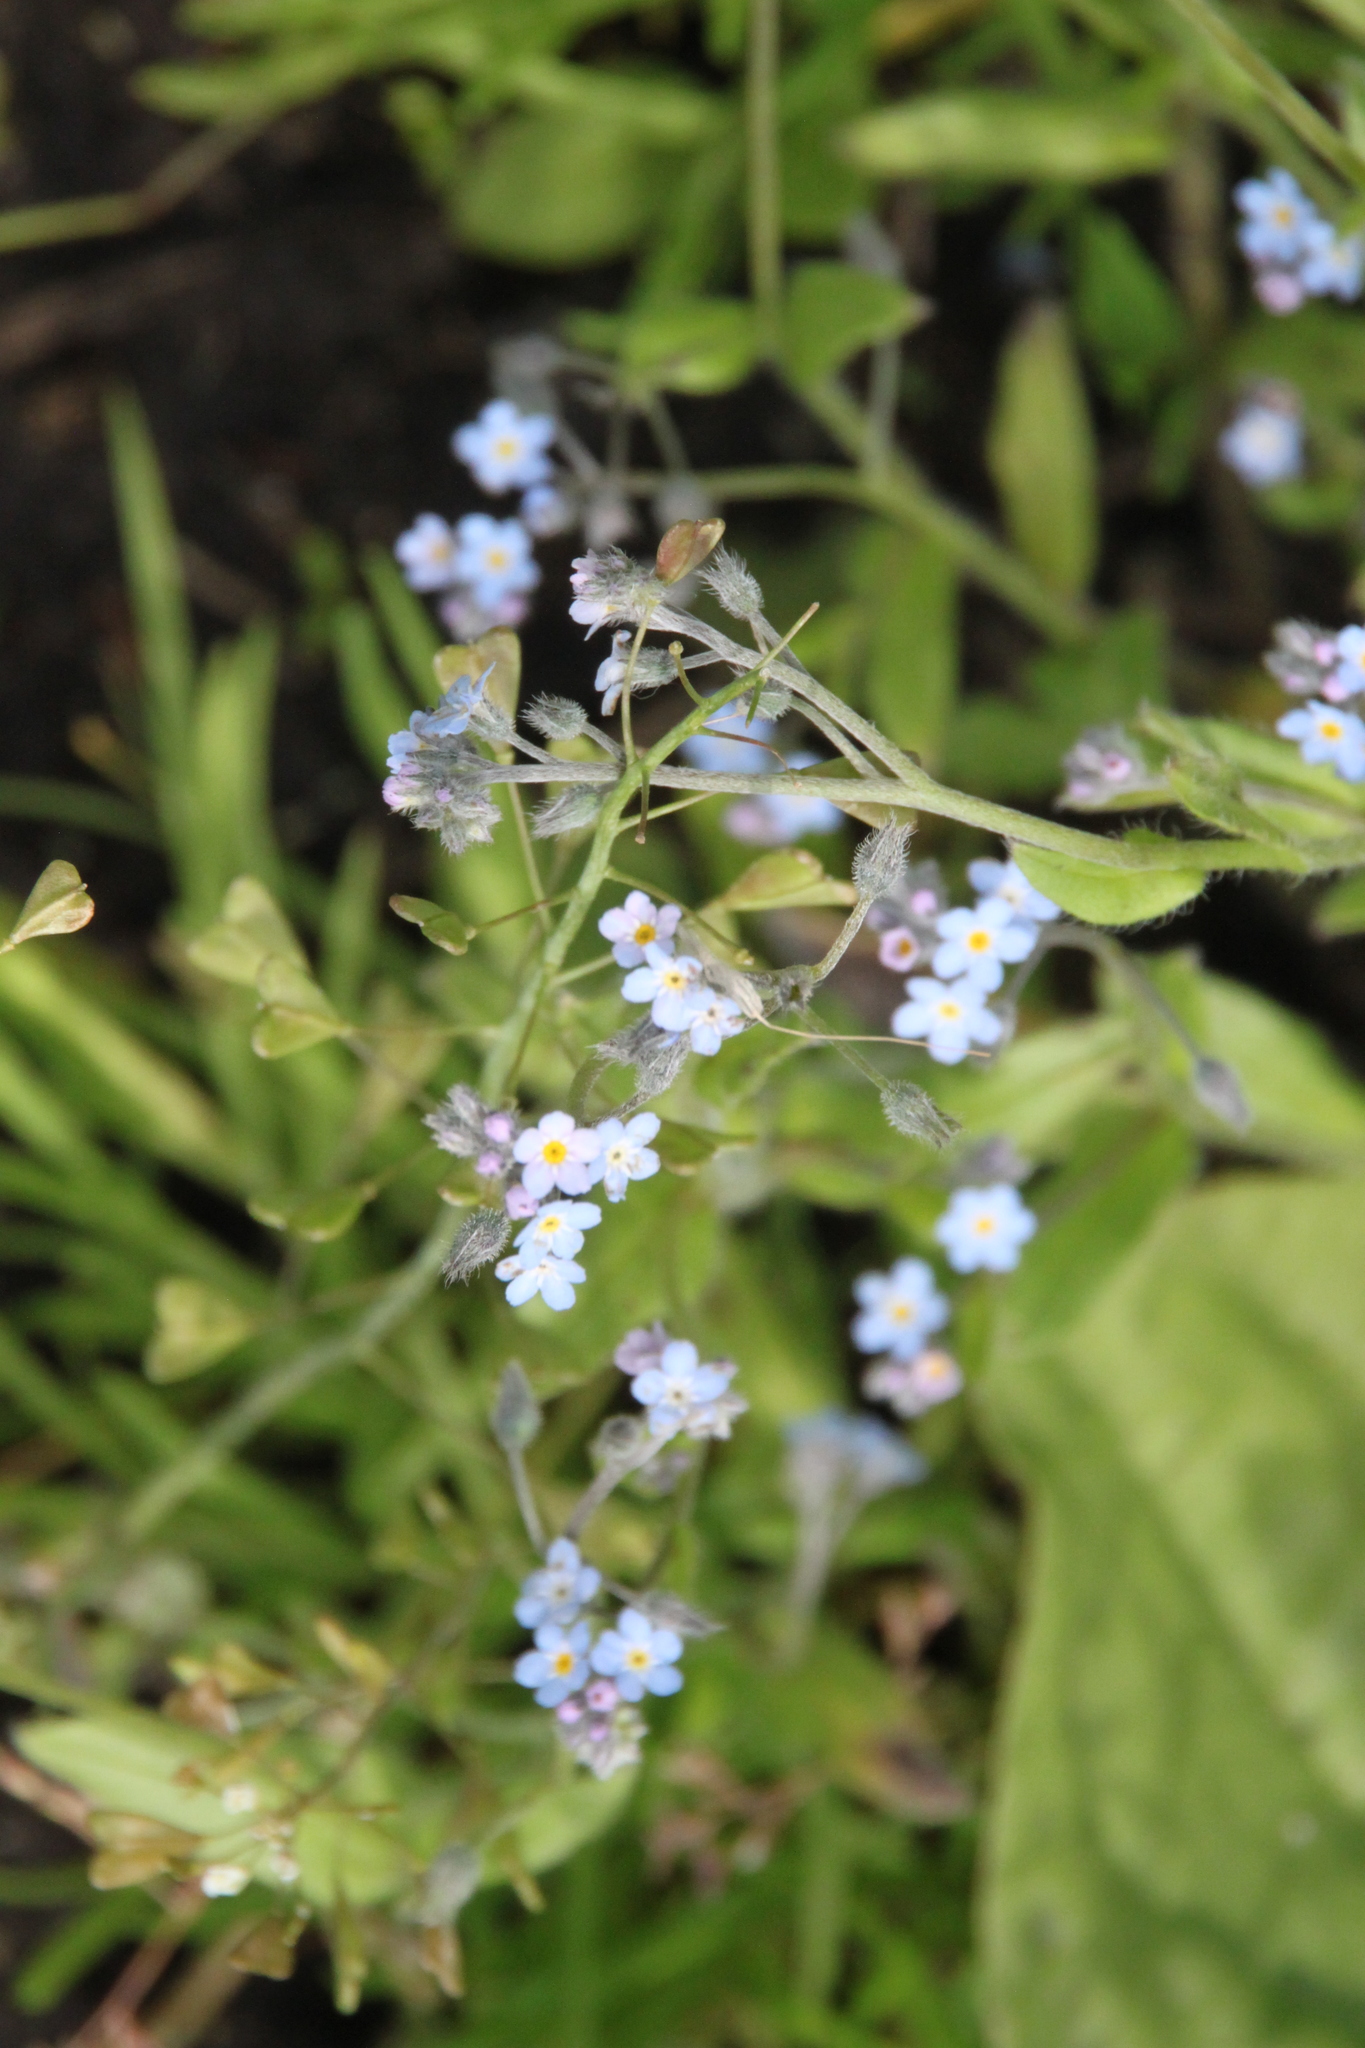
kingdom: Plantae
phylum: Tracheophyta
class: Magnoliopsida
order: Boraginales
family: Boraginaceae
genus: Myosotis
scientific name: Myosotis arvensis
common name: Field forget-me-not
